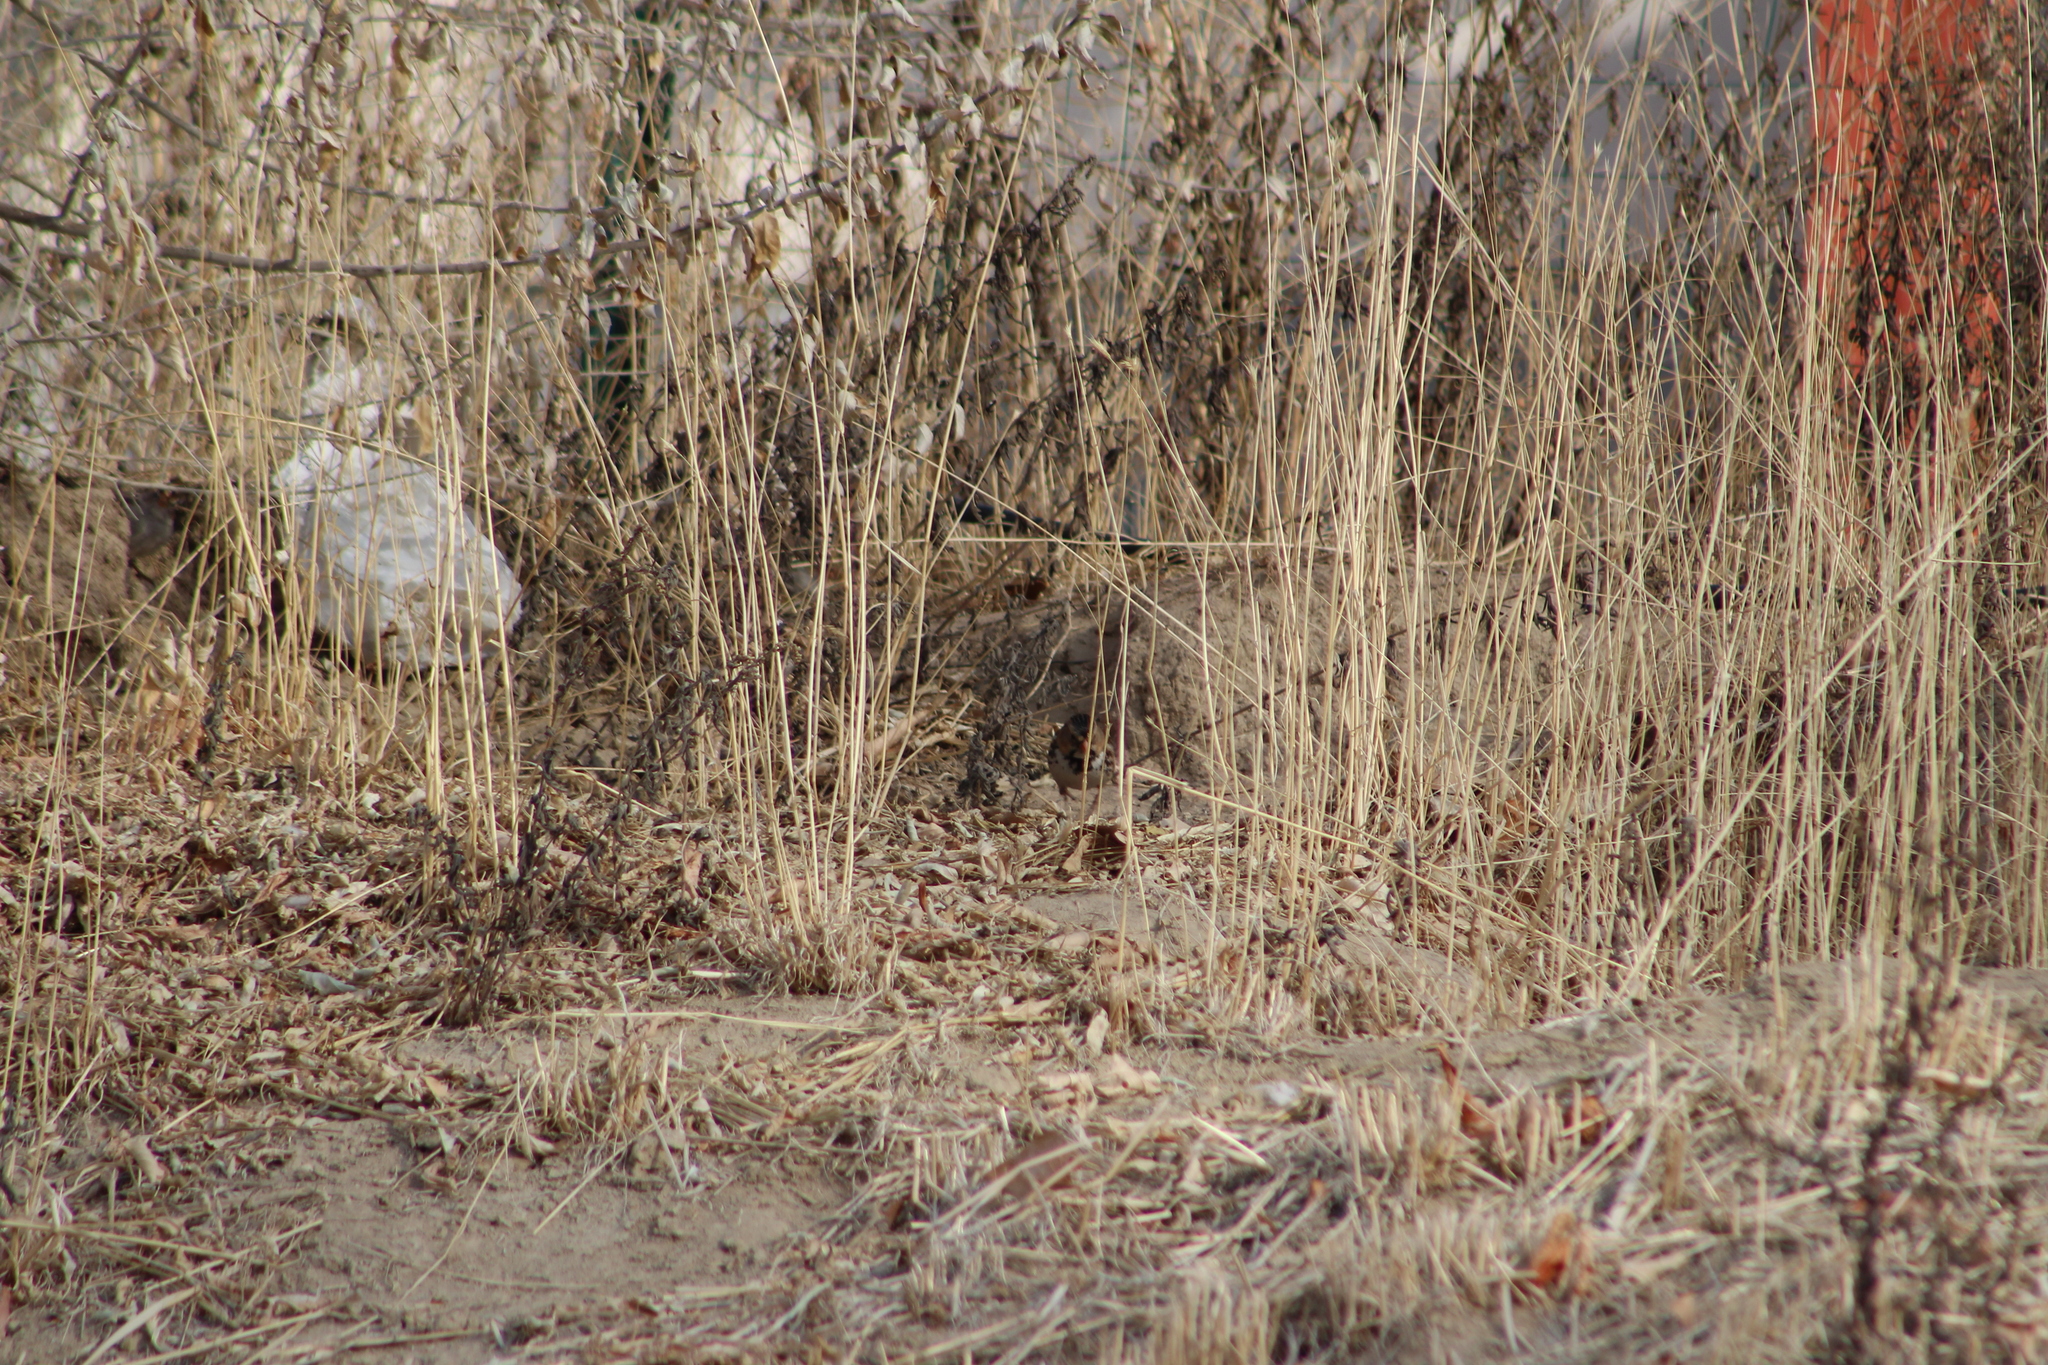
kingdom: Animalia
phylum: Chordata
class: Aves
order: Passeriformes
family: Passerellidae
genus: Zonotrichia
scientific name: Zonotrichia querula
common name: Harris's sparrow
